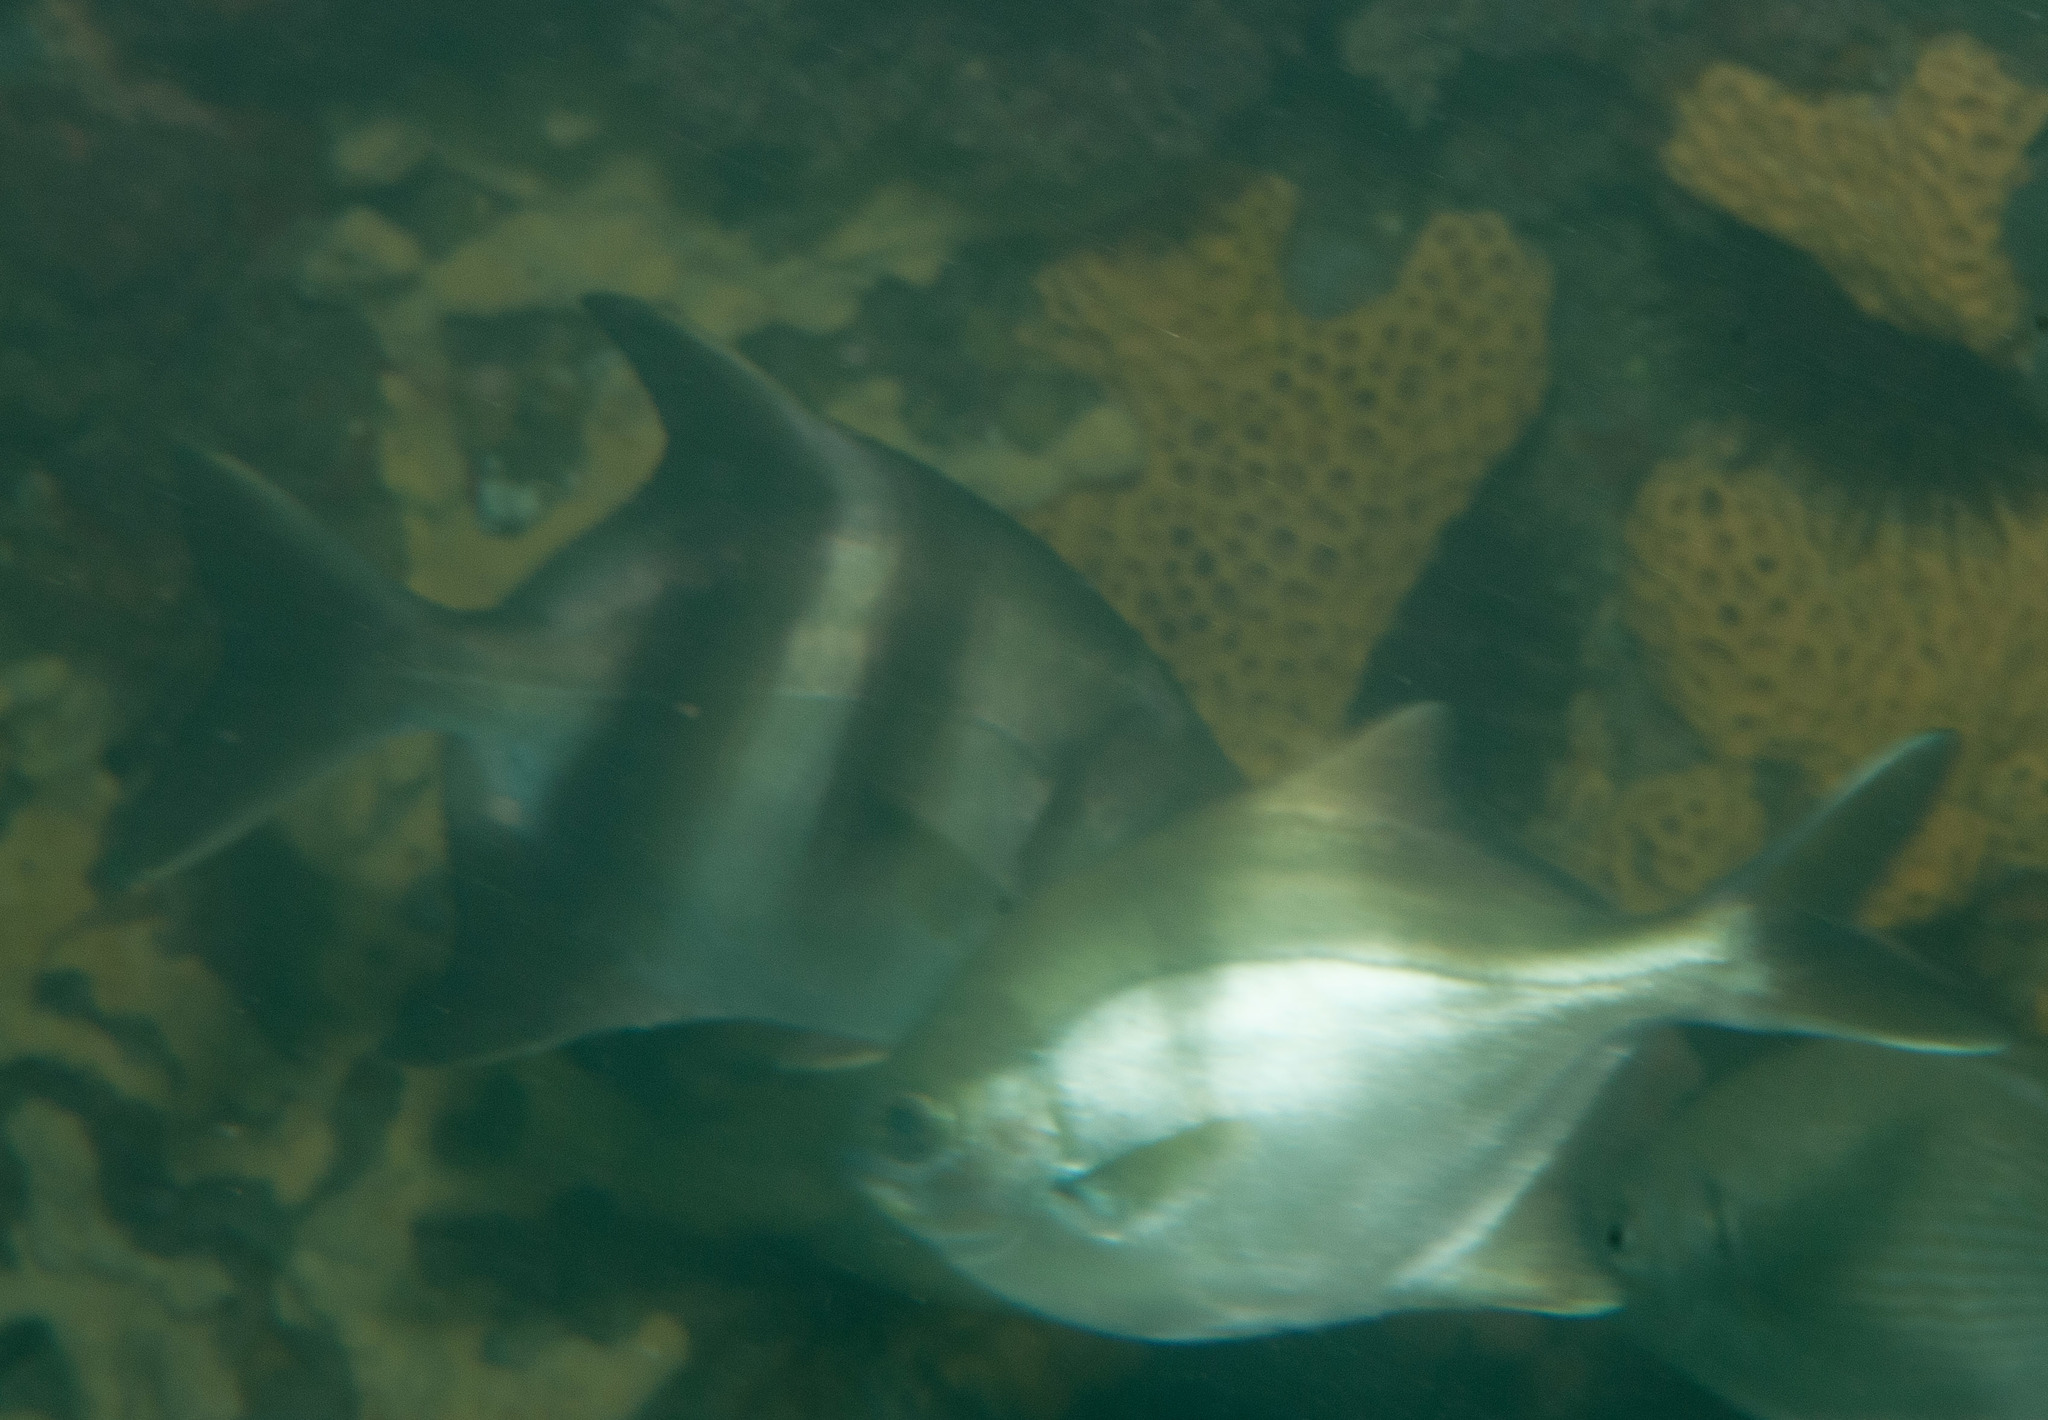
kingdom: Animalia
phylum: Chordata
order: Perciformes
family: Kyphosidae
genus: Scorpis
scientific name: Scorpis aequipinnis
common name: Sea sweep
